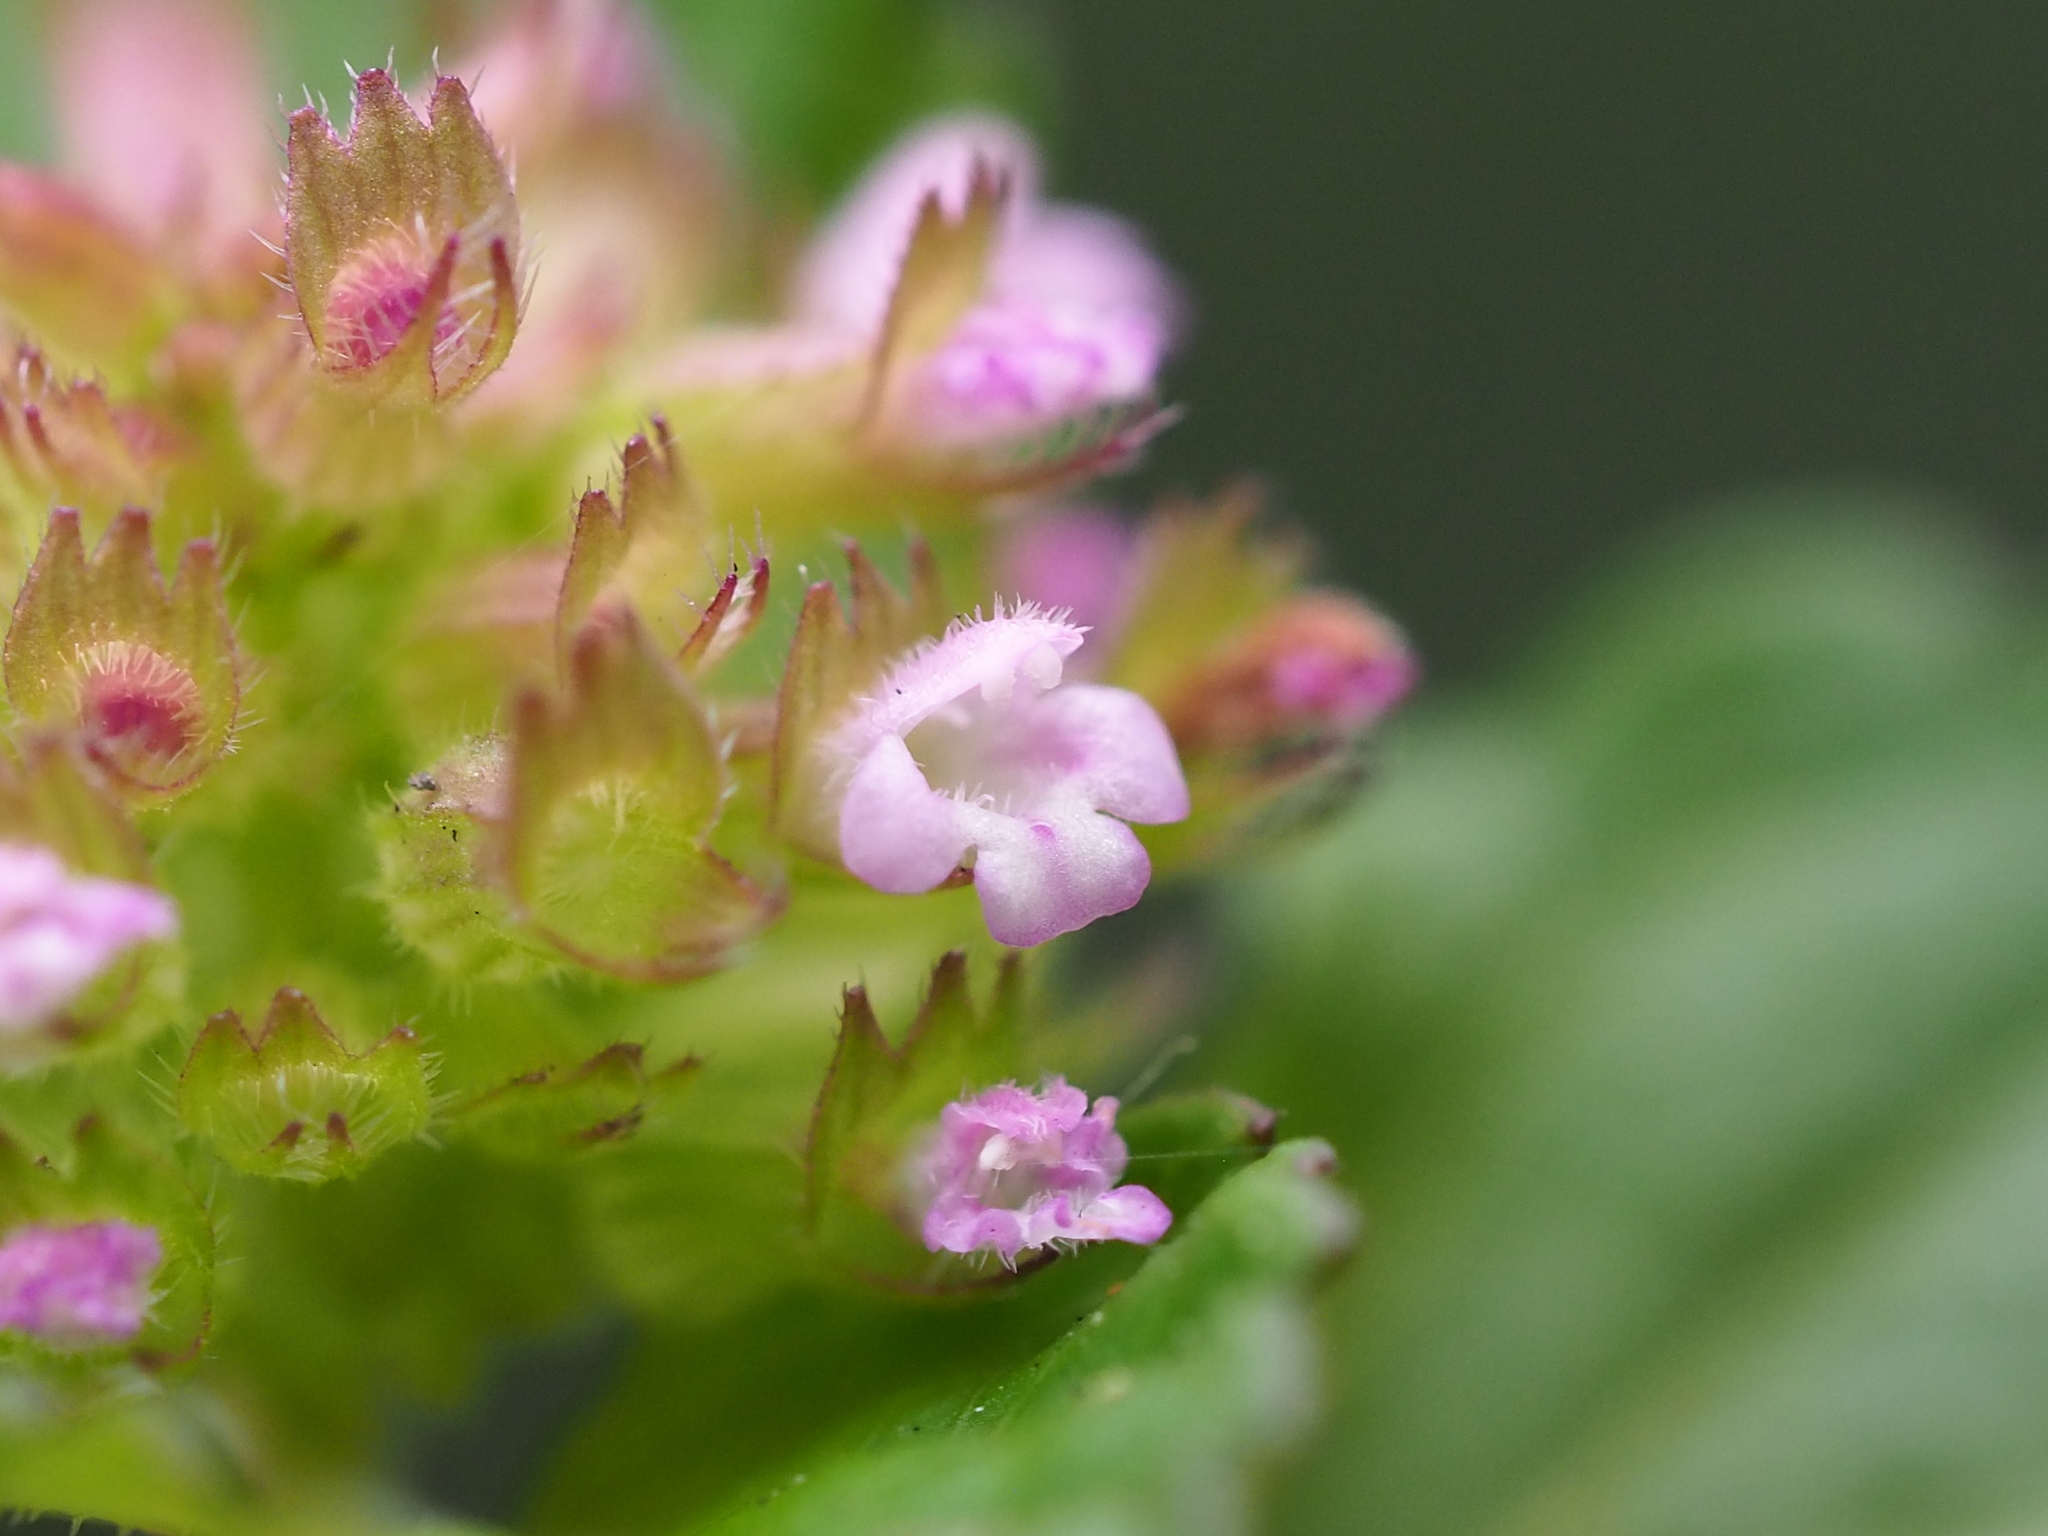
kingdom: Plantae
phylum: Tracheophyta
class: Magnoliopsida
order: Lamiales
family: Lamiaceae
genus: Clinopodium
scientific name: Clinopodium gracile
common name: Slender wild basil
